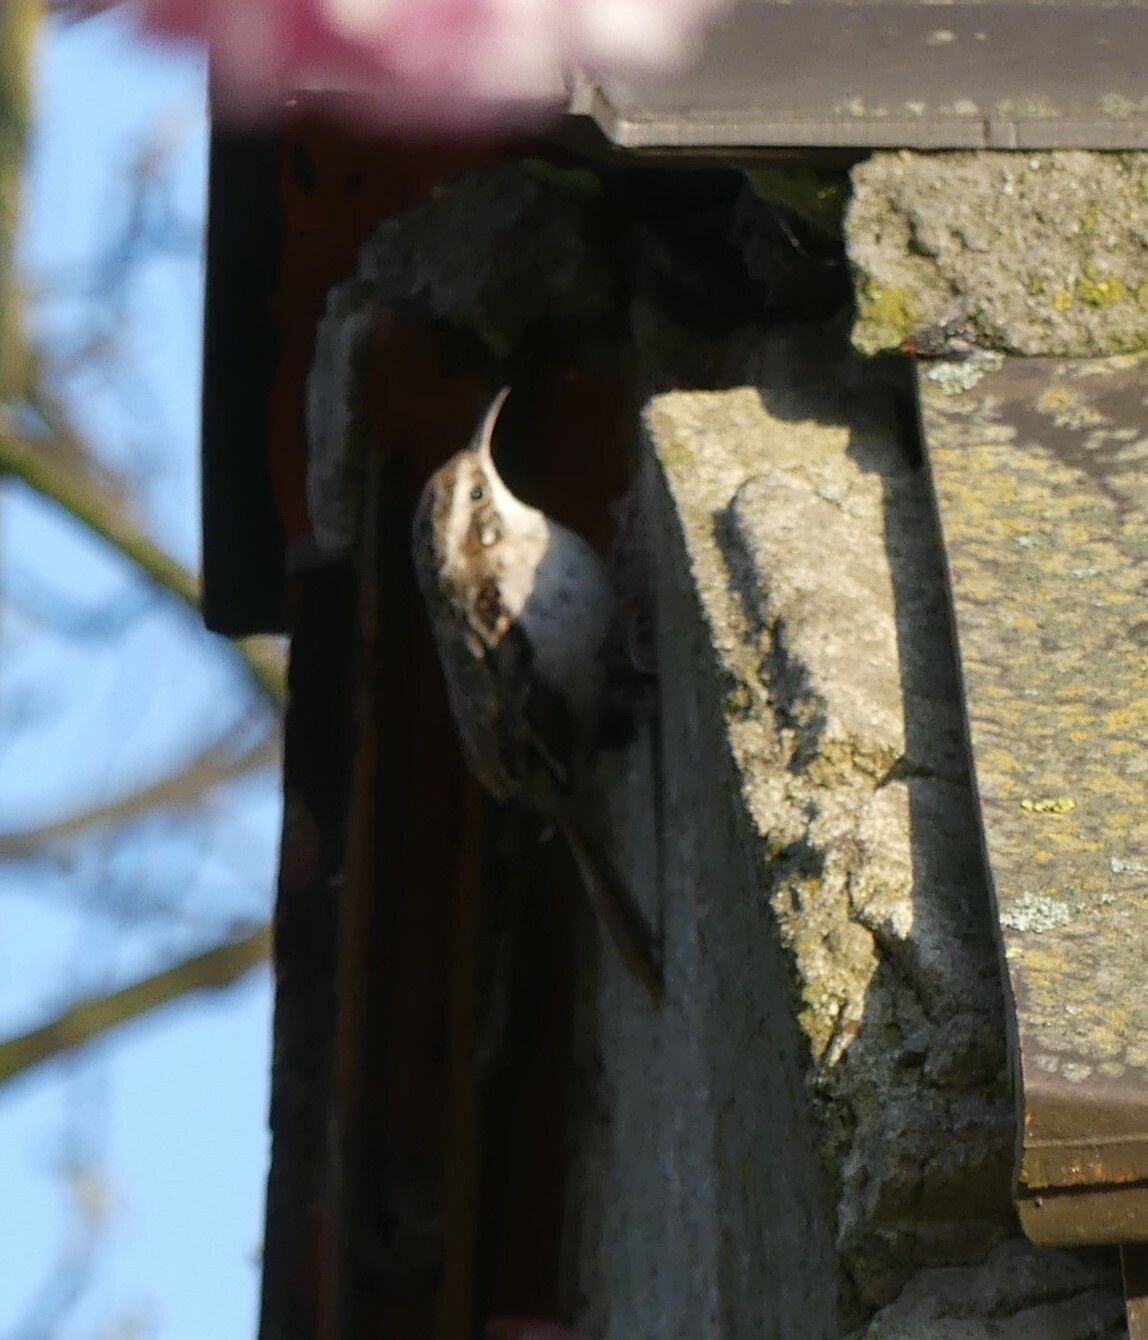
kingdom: Animalia
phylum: Chordata
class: Aves
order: Passeriformes
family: Certhiidae
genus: Certhia
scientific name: Certhia brachydactyla
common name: Short-toed treecreeper
